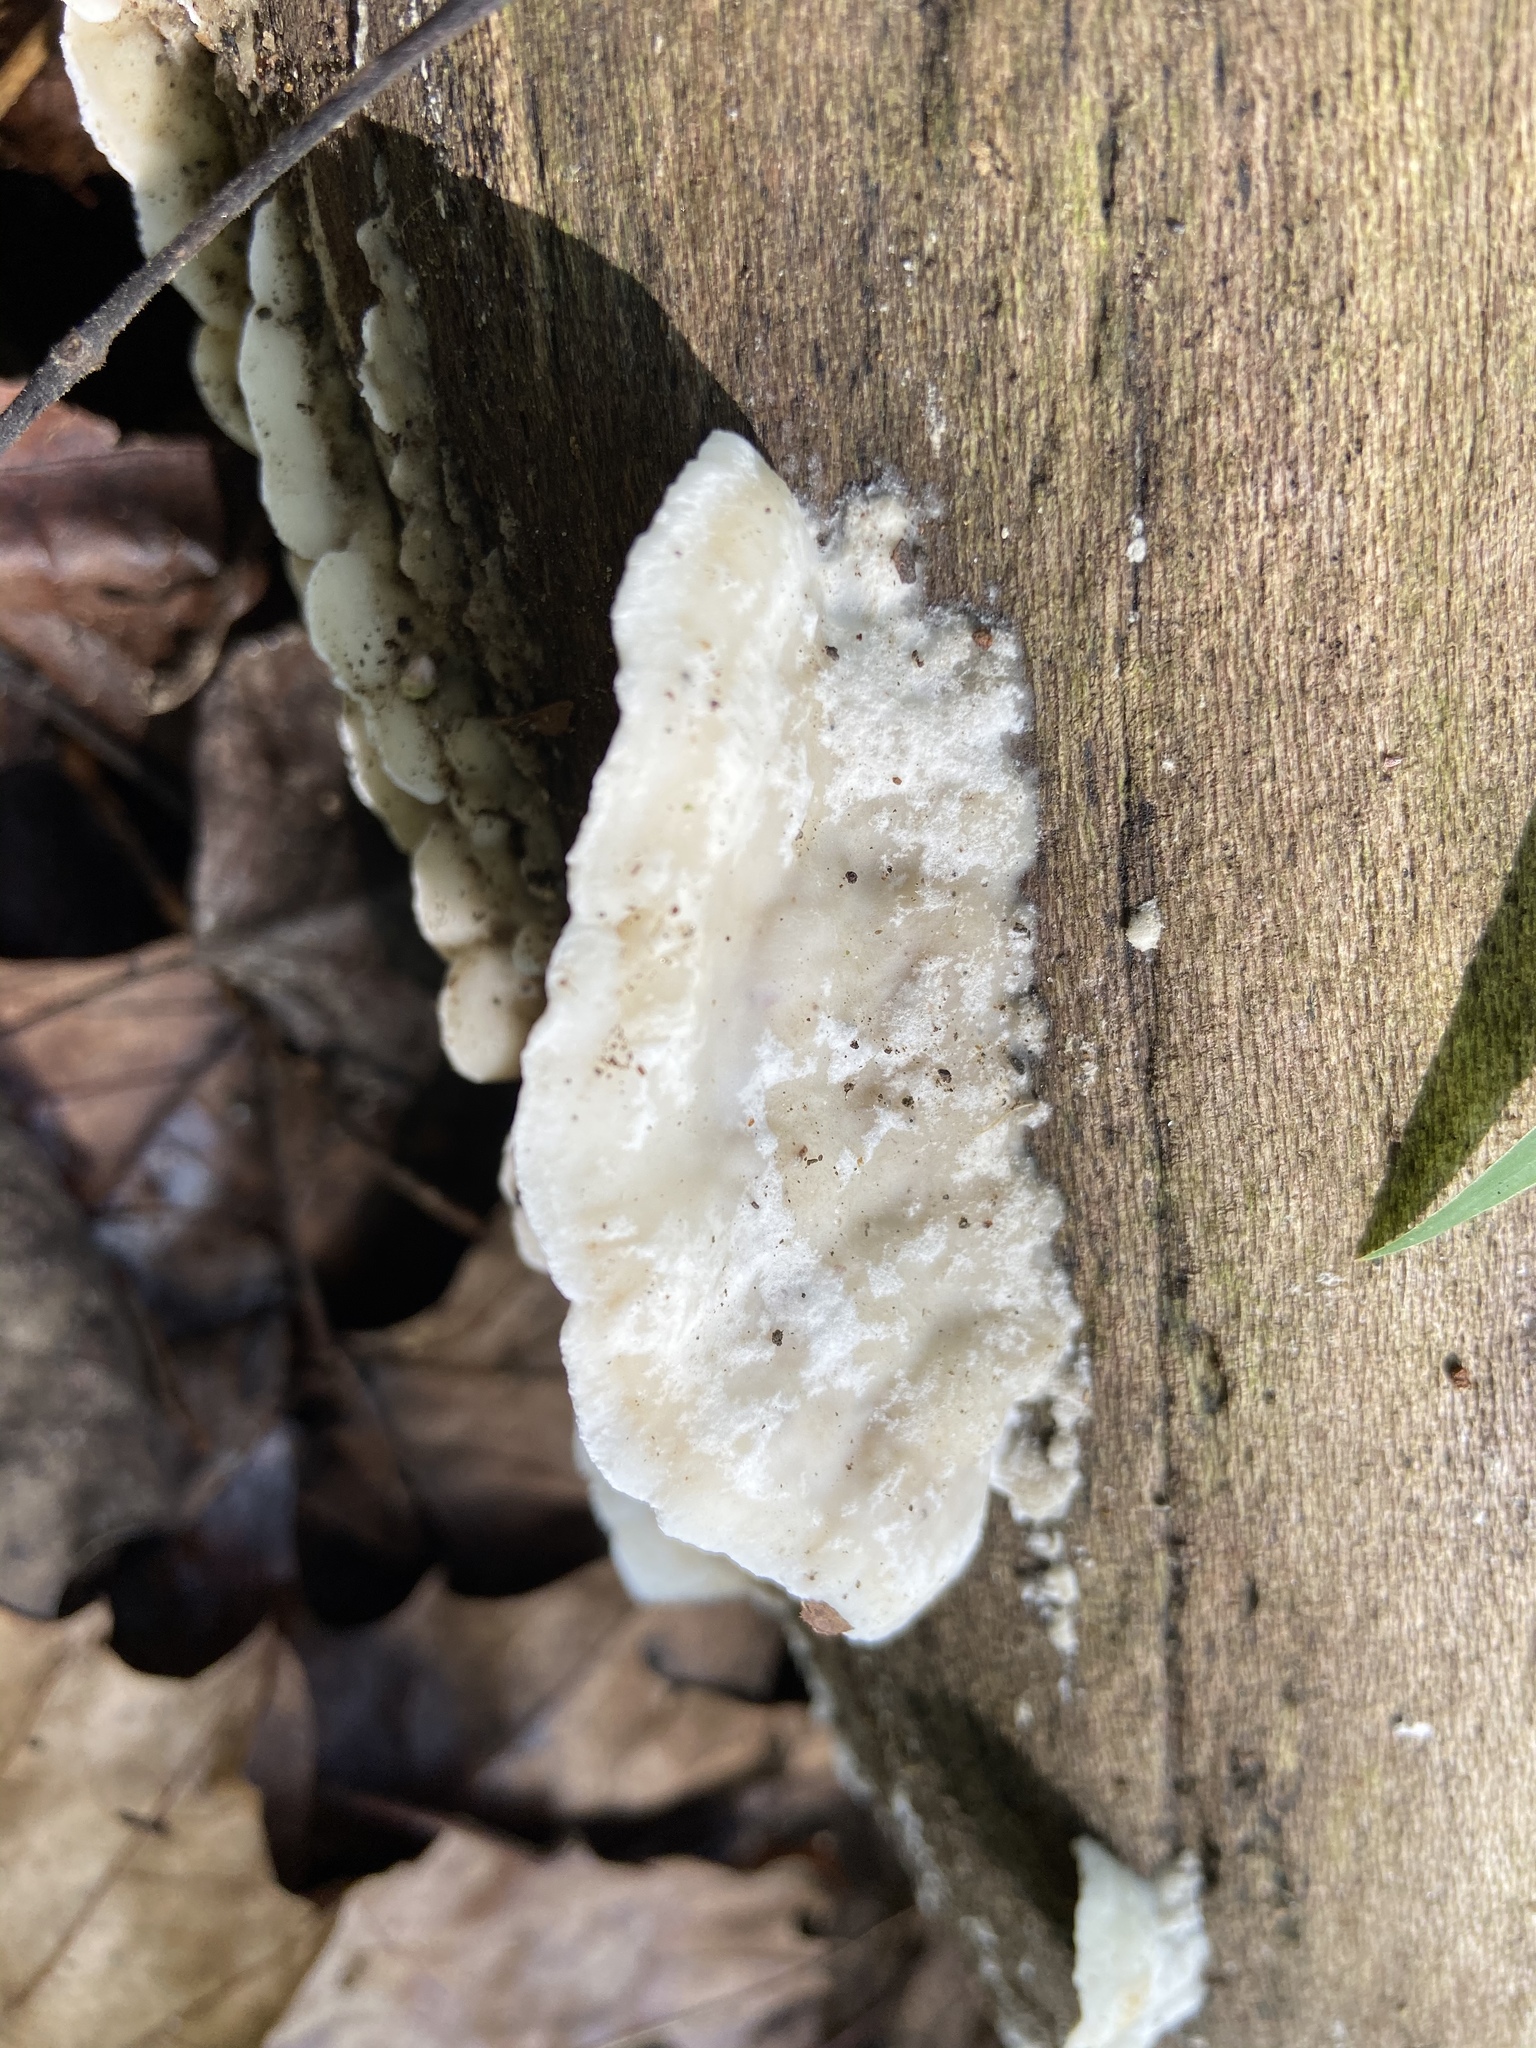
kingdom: Fungi
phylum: Basidiomycota
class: Agaricomycetes
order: Polyporales
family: Incrustoporiaceae
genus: Tyromyces
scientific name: Tyromyces chioneus
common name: White cheese polypore
